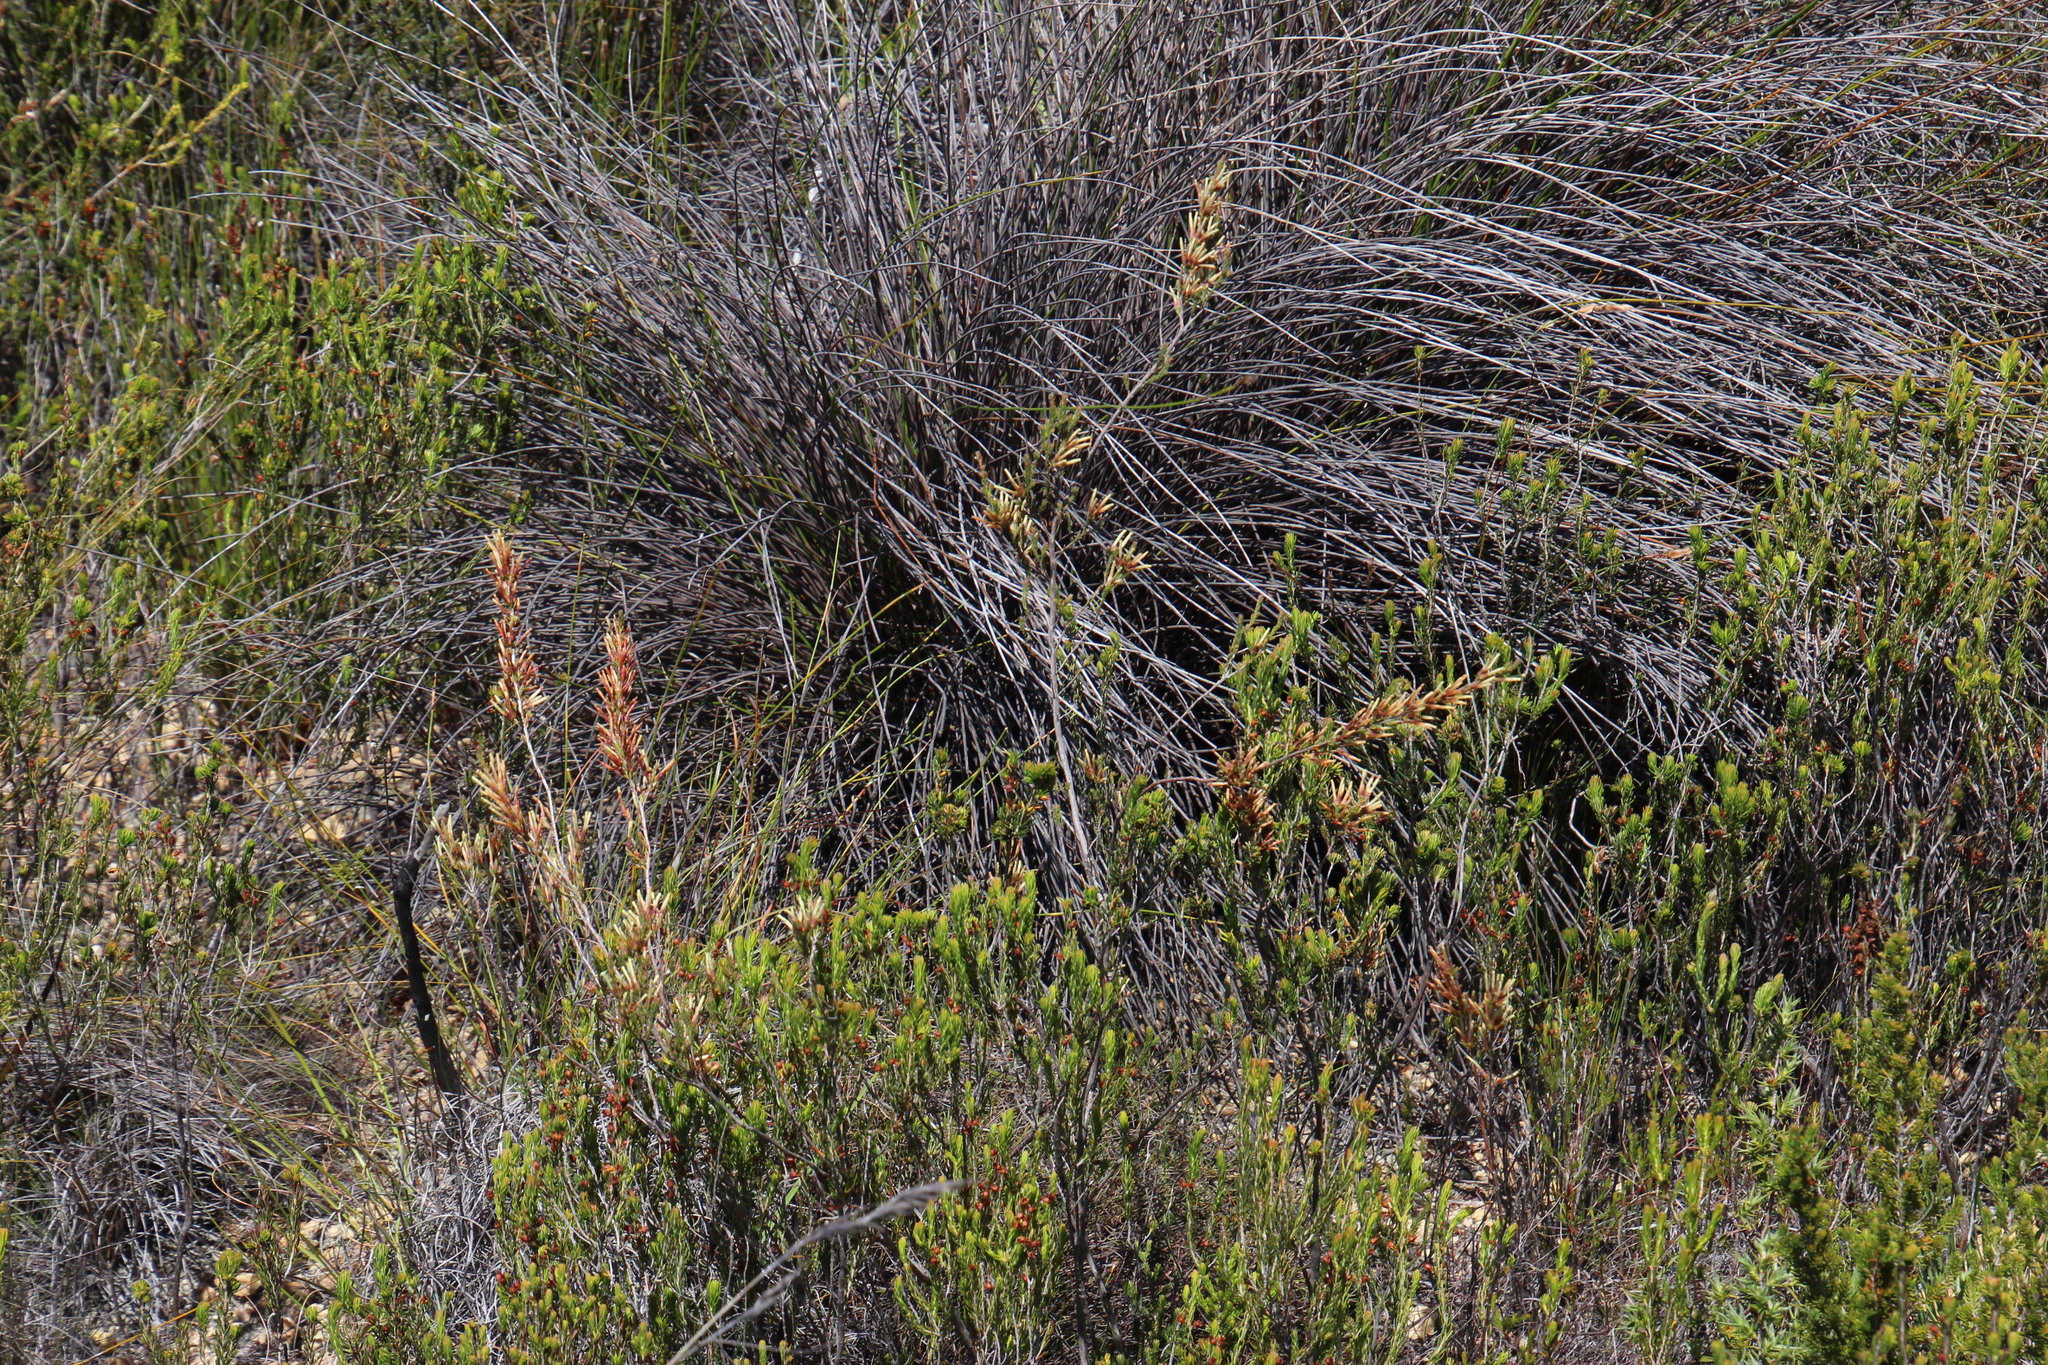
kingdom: Plantae
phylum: Tracheophyta
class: Magnoliopsida
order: Ericales
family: Ericaceae
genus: Erica
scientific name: Erica cylindrica
